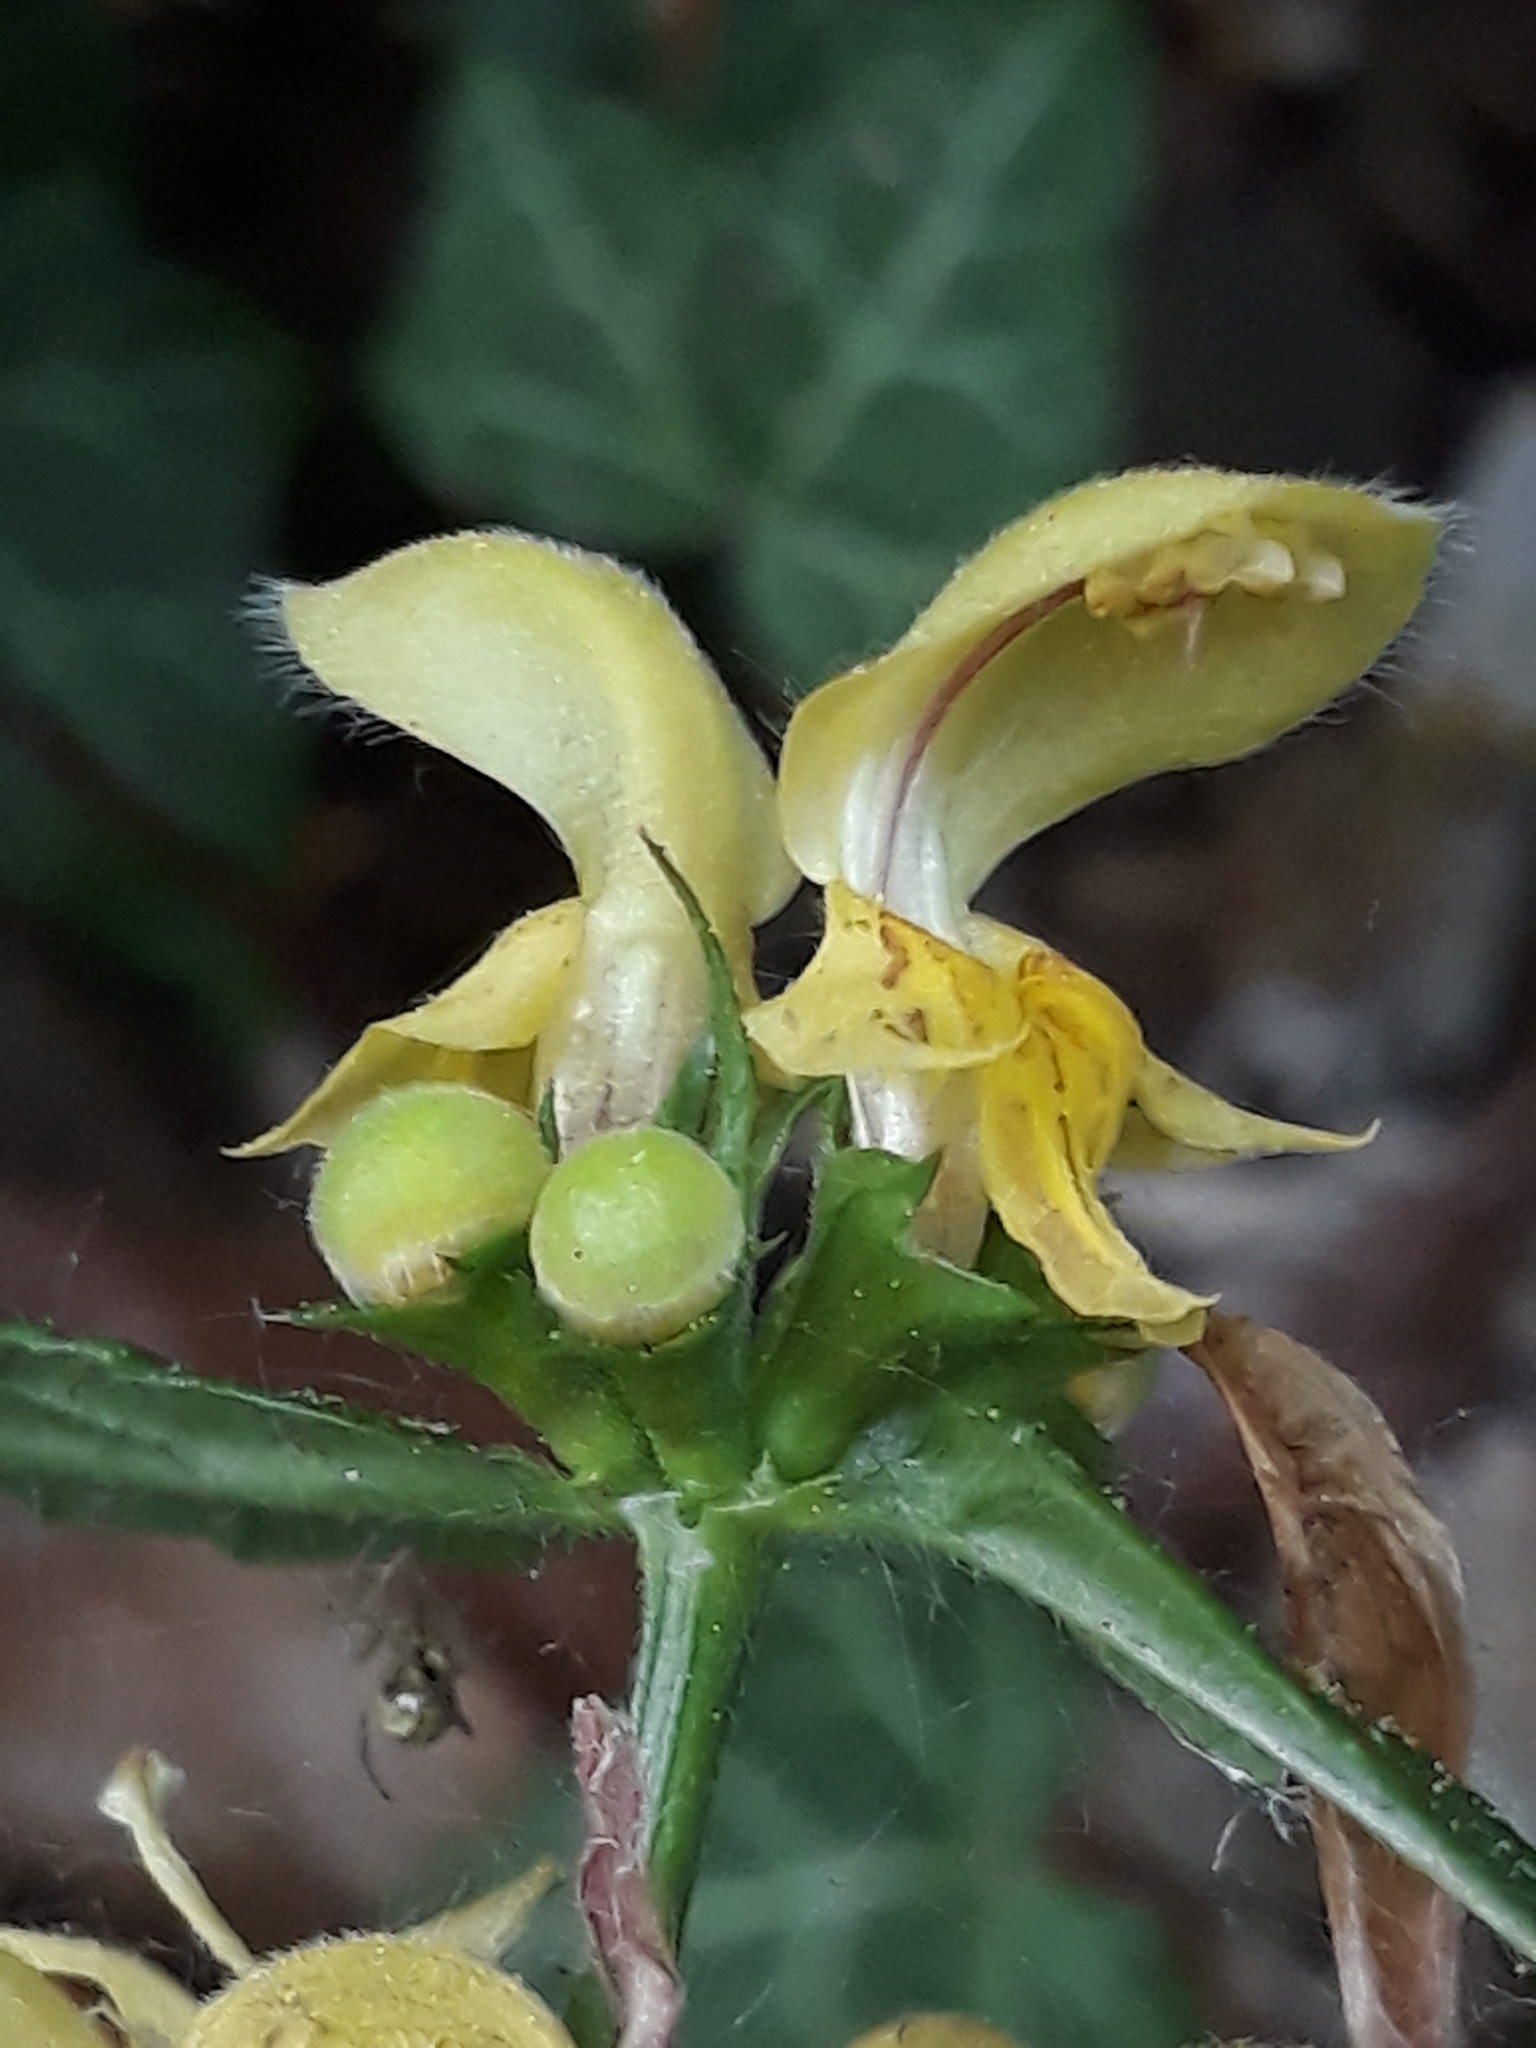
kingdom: Plantae
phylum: Tracheophyta
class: Magnoliopsida
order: Lamiales
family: Lamiaceae
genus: Lamium
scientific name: Lamium galeobdolon
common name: Yellow archangel
